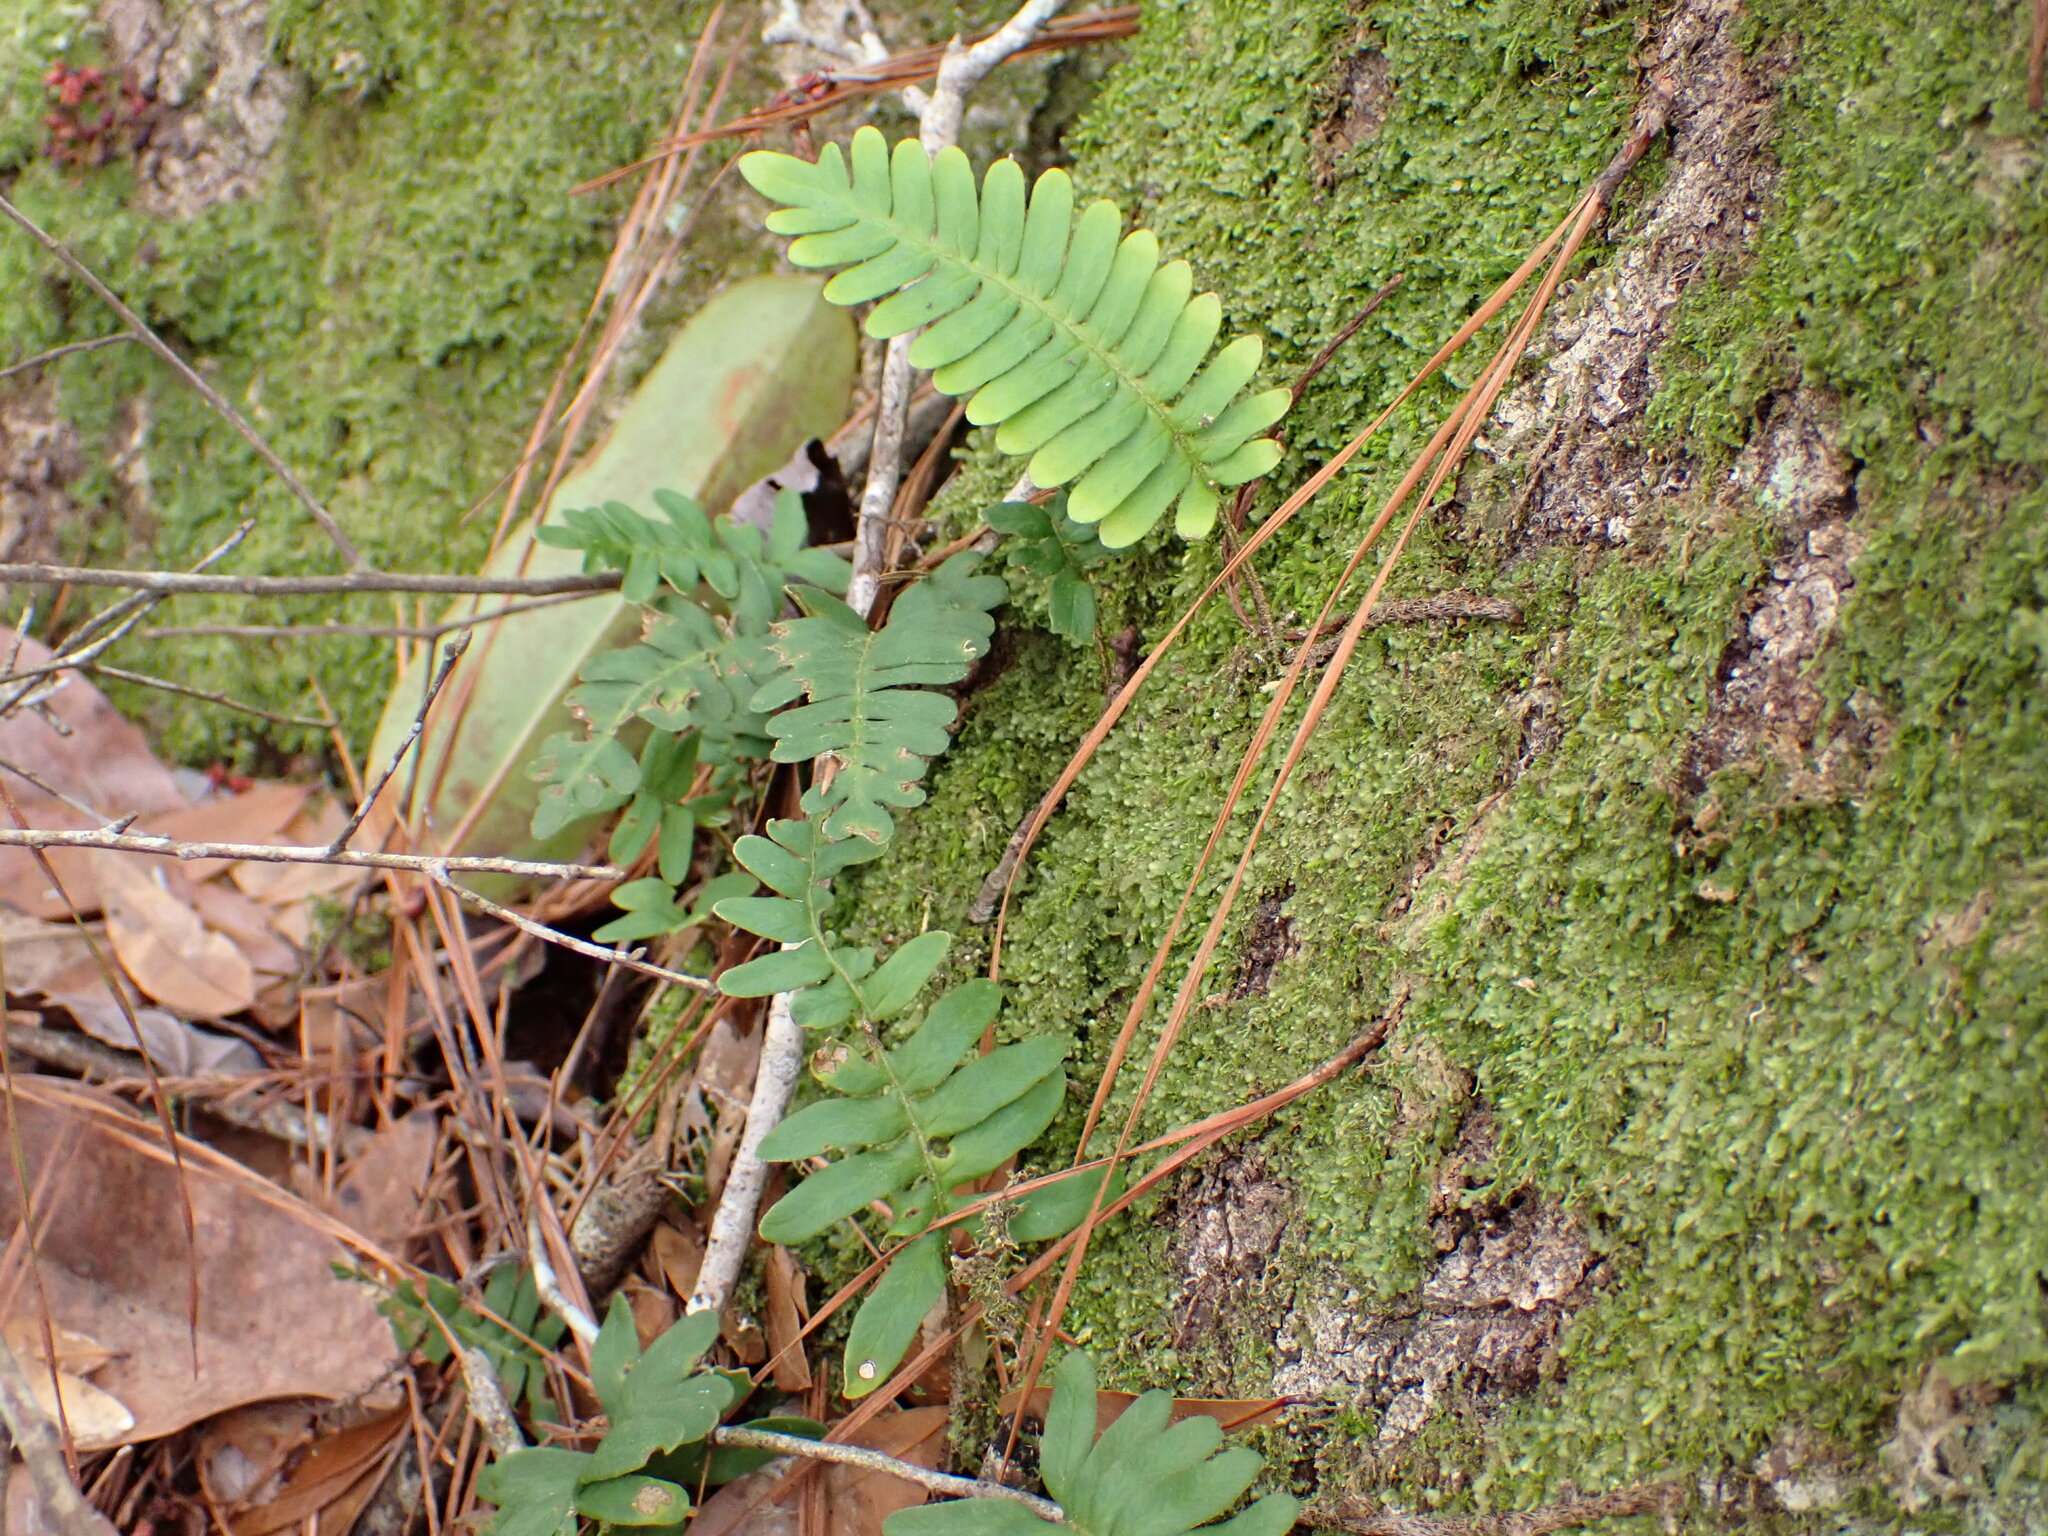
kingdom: Plantae
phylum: Tracheophyta
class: Polypodiopsida
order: Polypodiales
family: Polypodiaceae
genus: Pleopeltis
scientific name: Pleopeltis michauxiana
